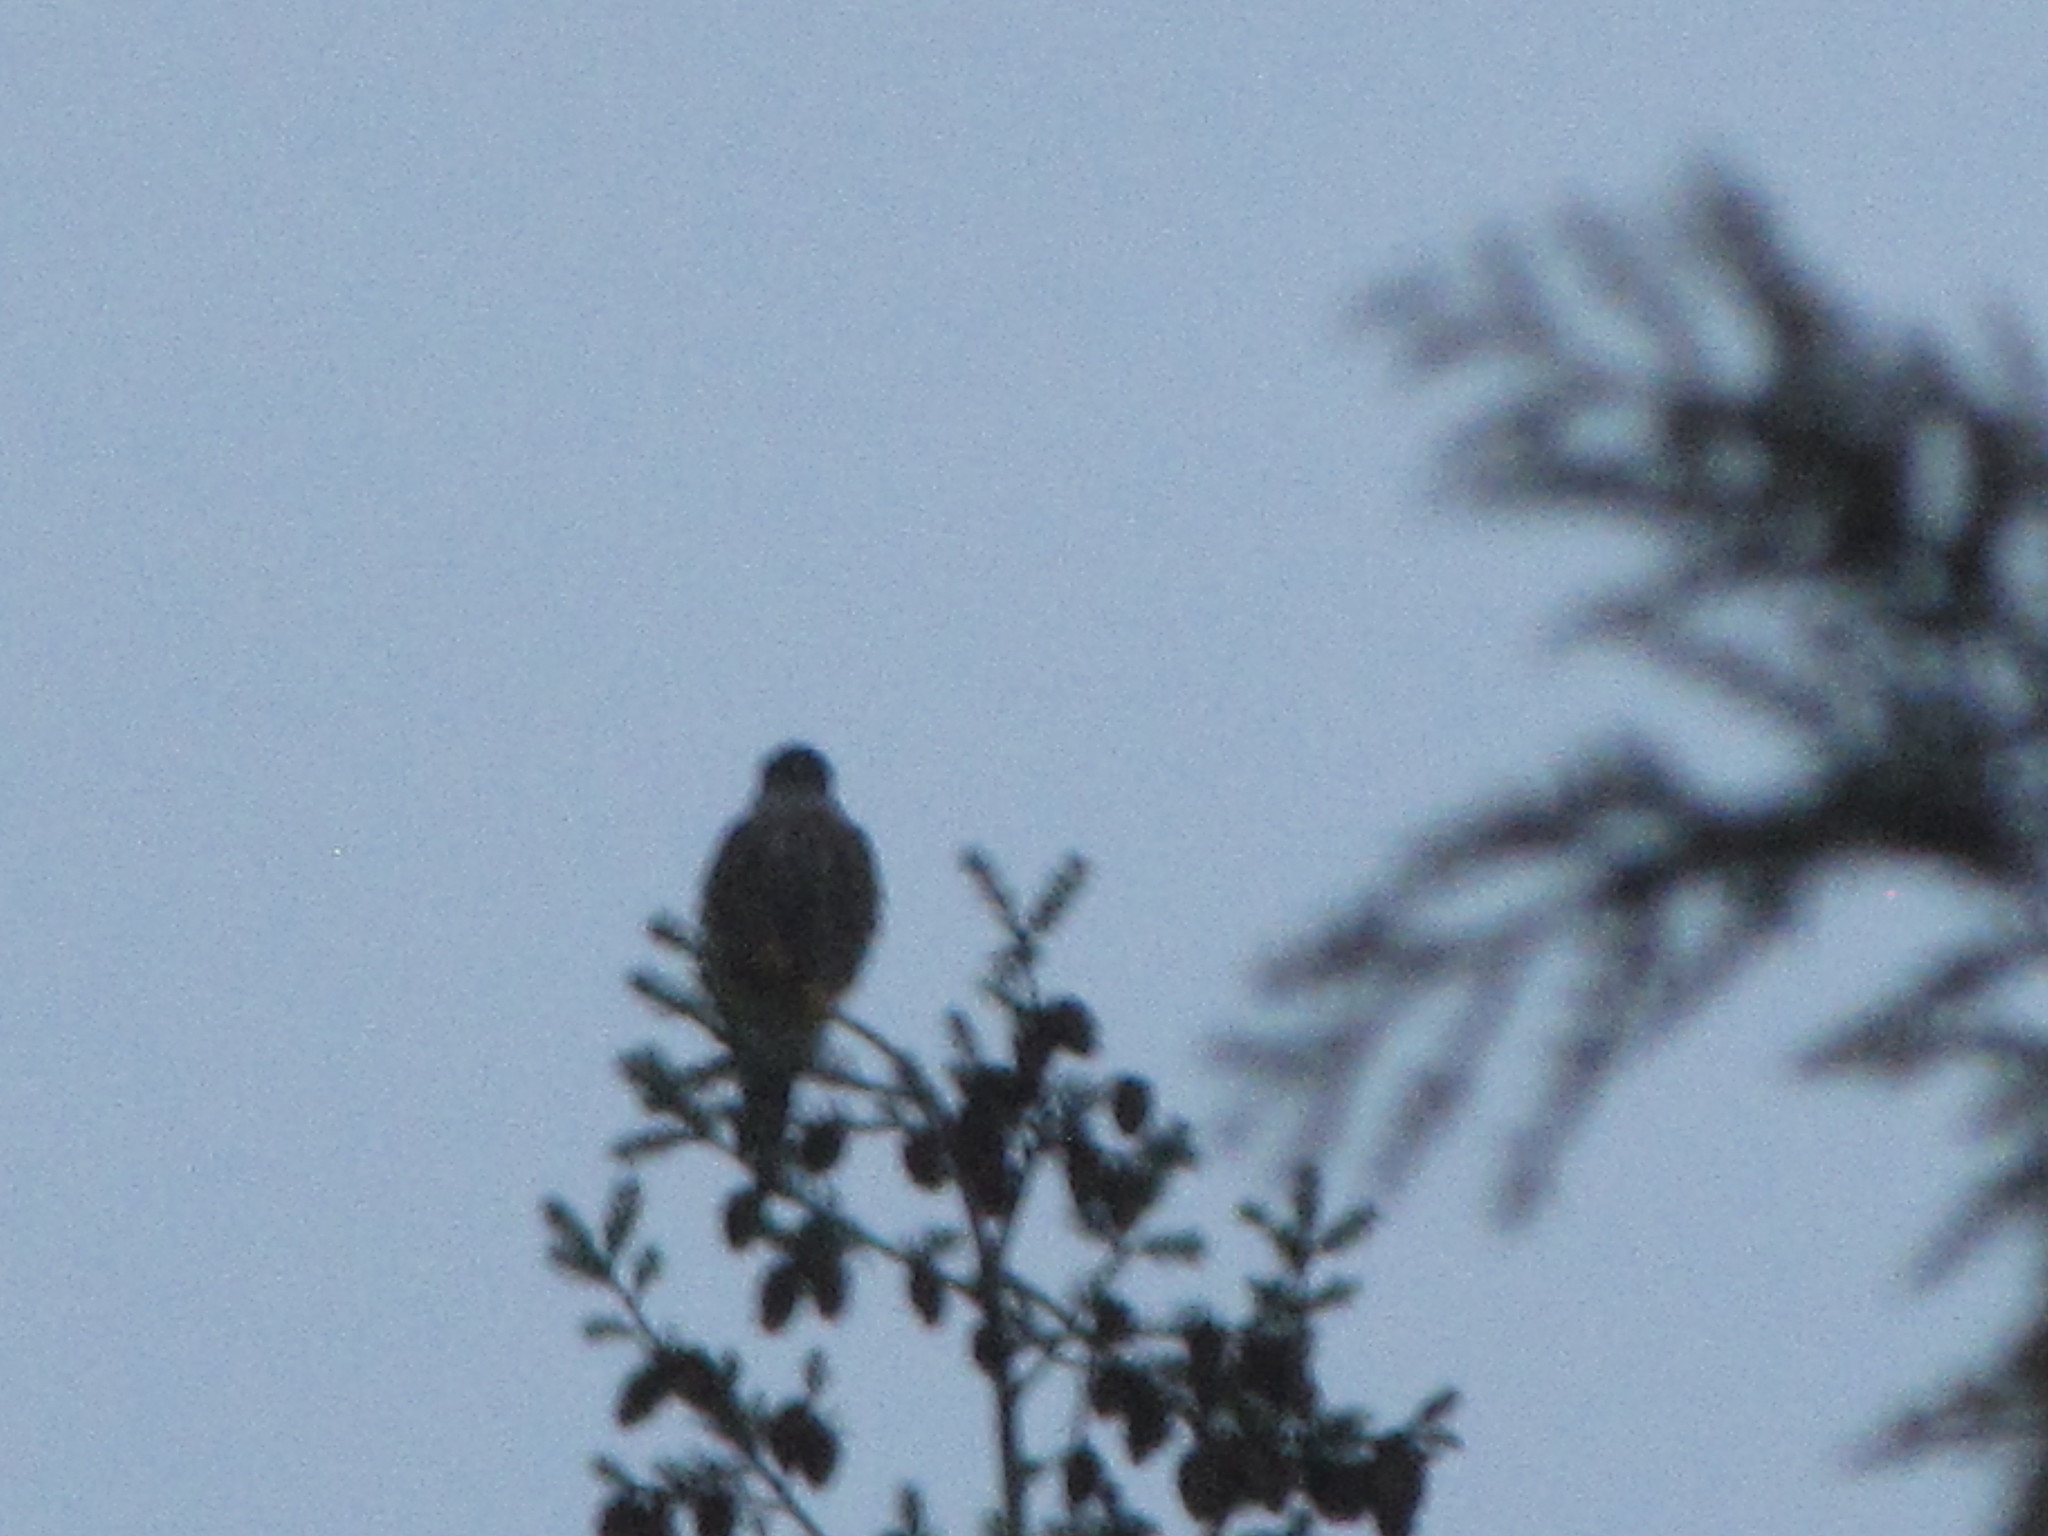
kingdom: Animalia
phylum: Chordata
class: Aves
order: Falconiformes
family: Falconidae
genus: Falco
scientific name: Falco columbarius
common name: Merlin
